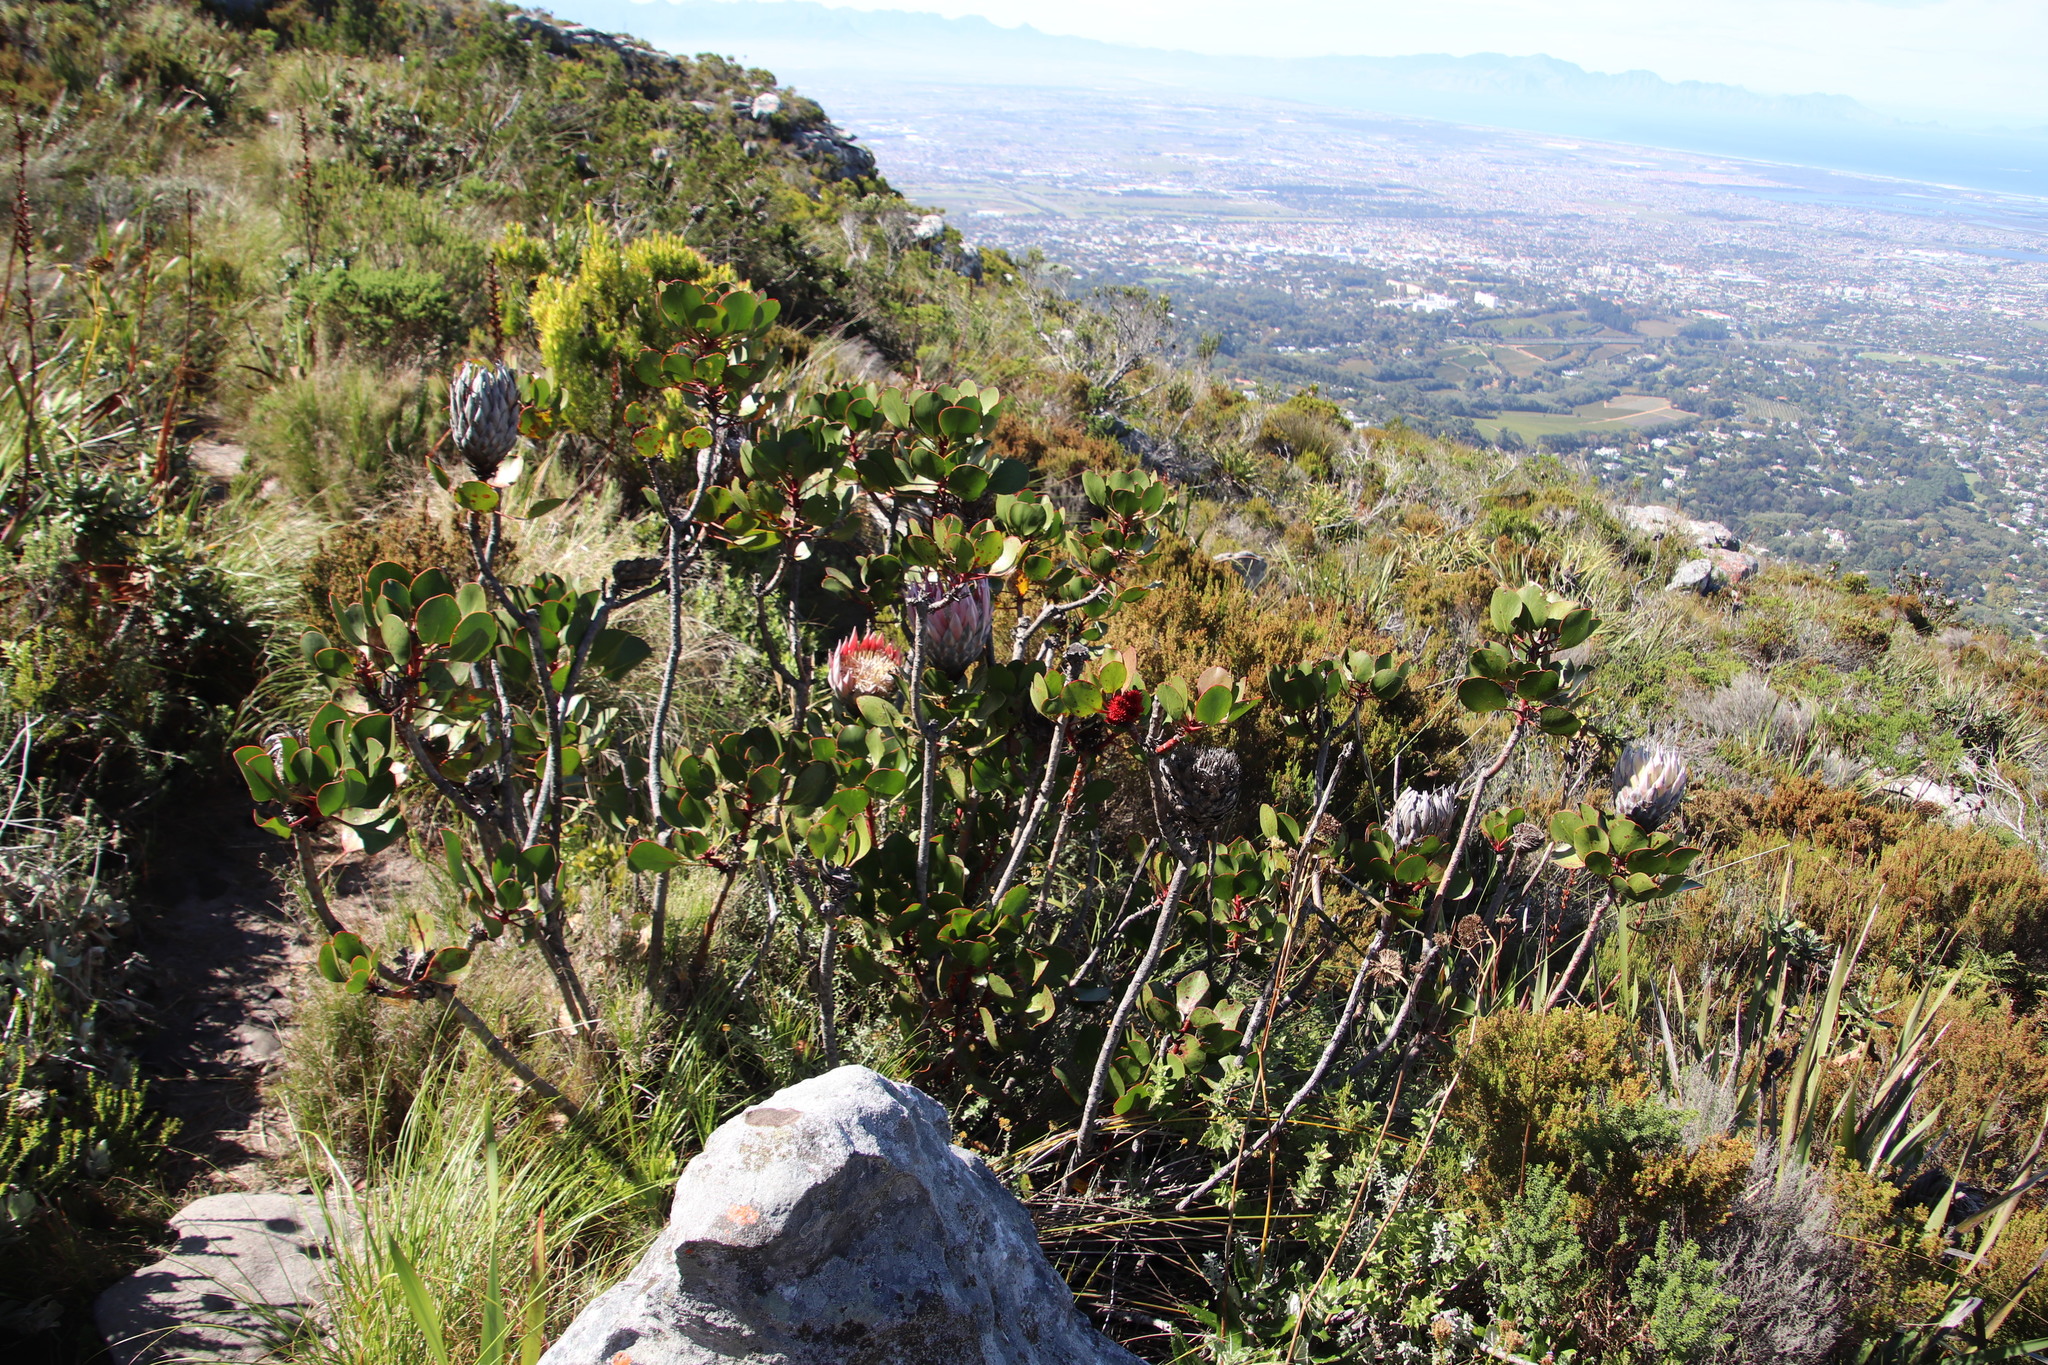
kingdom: Plantae
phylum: Tracheophyta
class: Magnoliopsida
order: Proteales
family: Proteaceae
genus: Protea
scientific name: Protea cynaroides
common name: King protea
